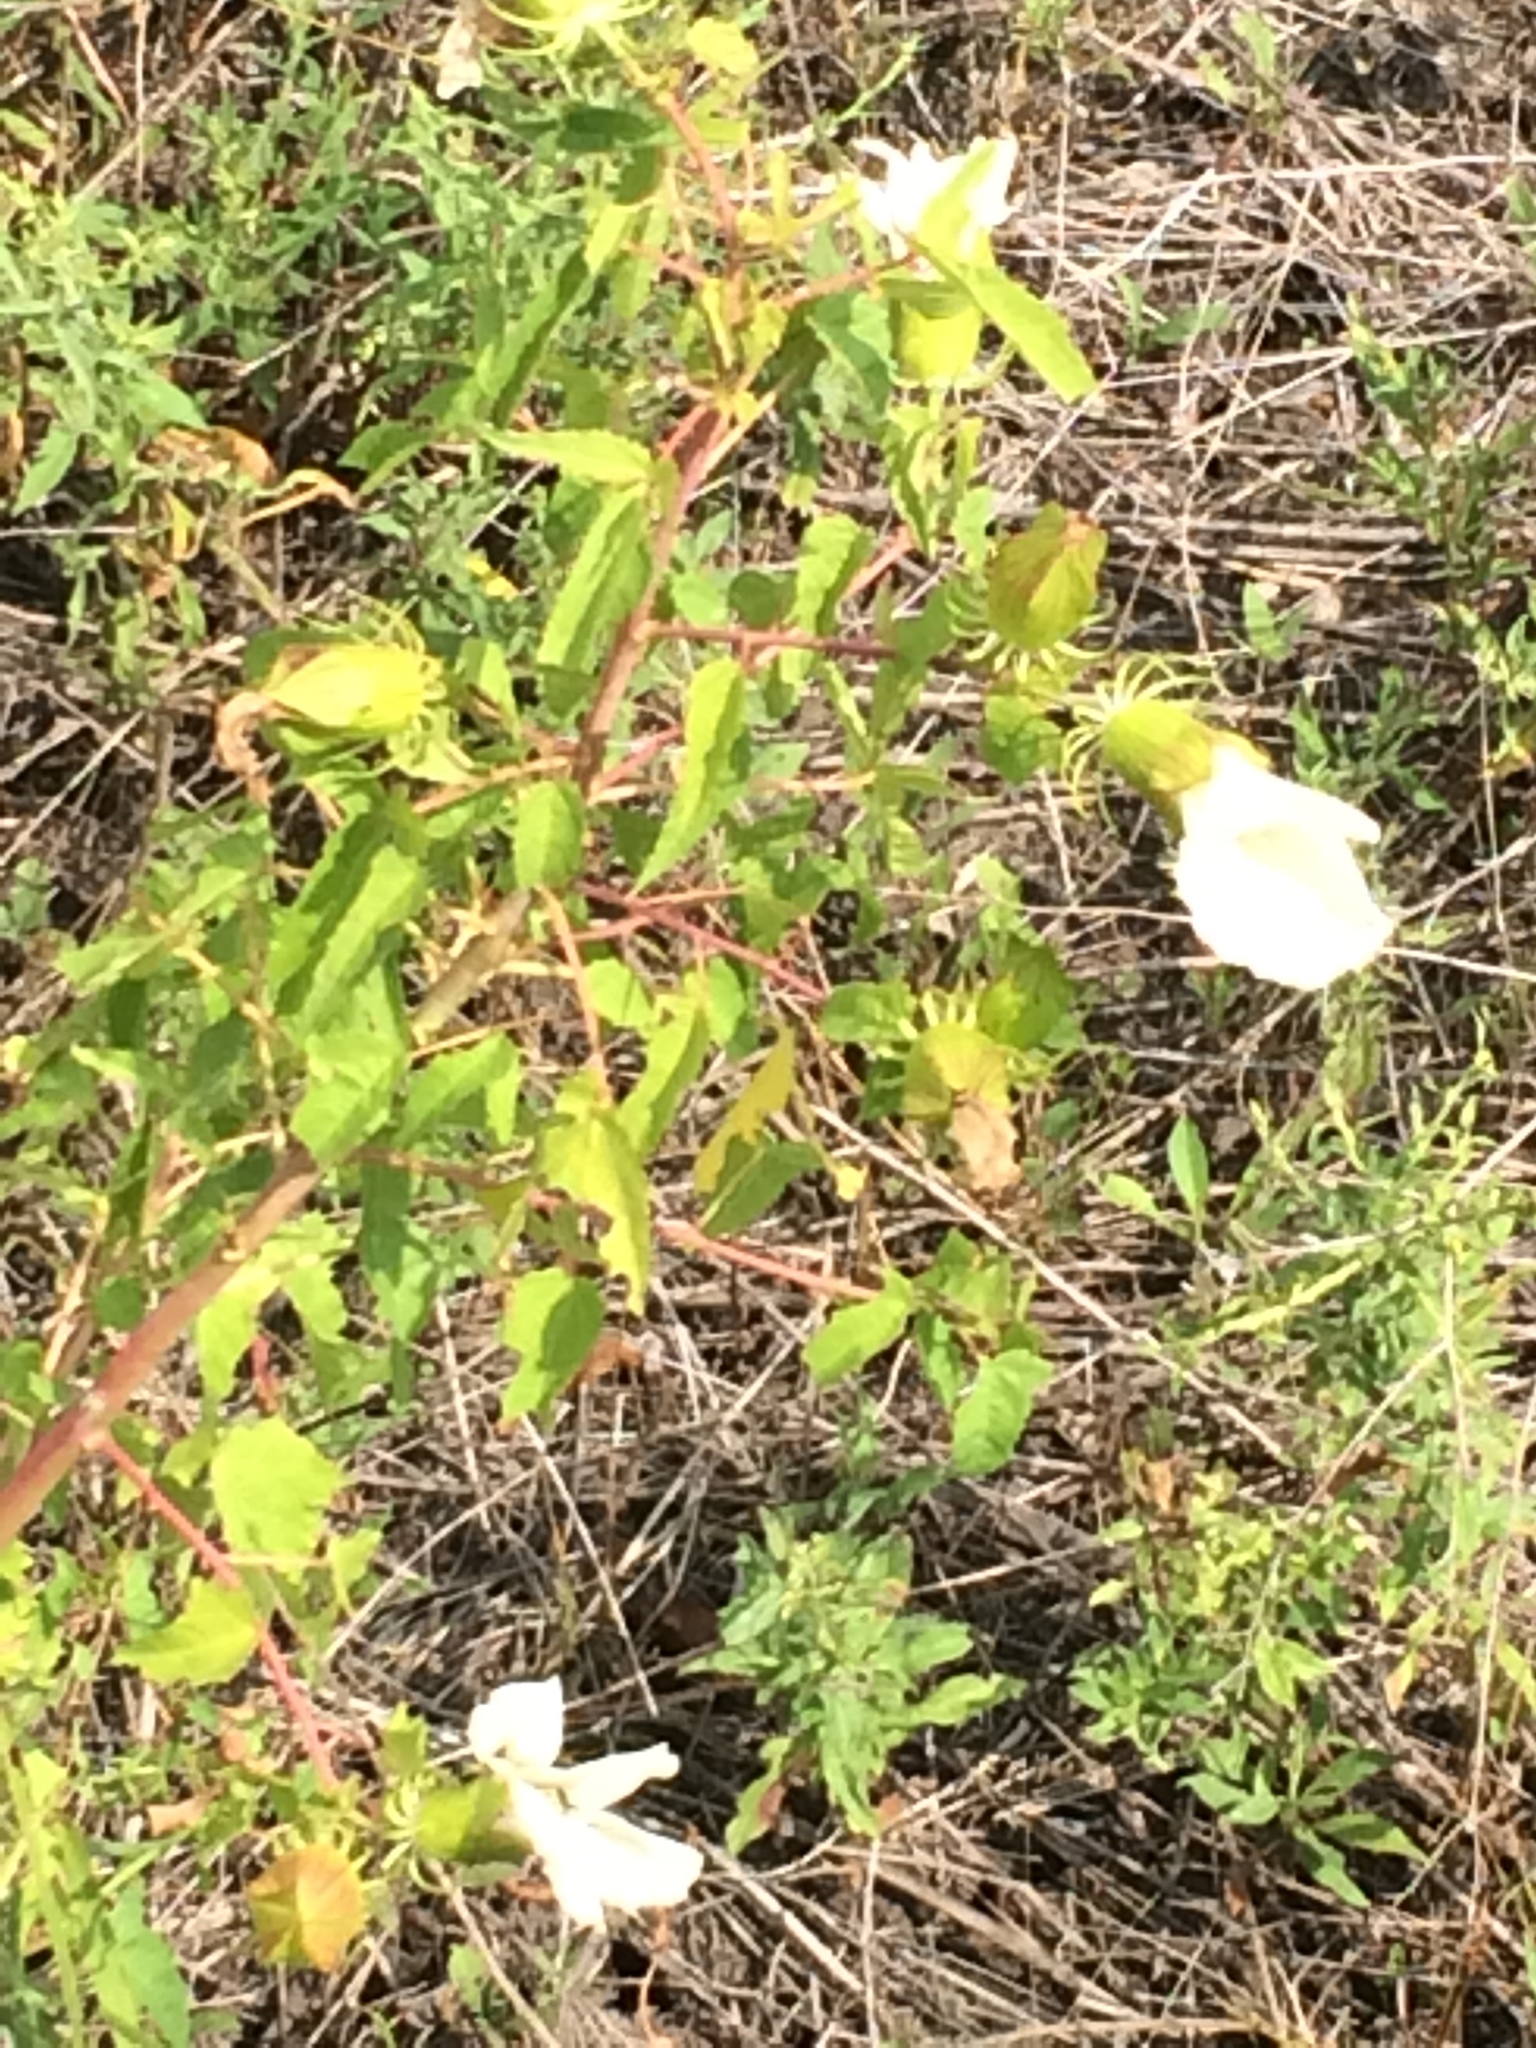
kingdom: Plantae
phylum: Tracheophyta
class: Magnoliopsida
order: Malvales
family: Malvaceae
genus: Hibiscus
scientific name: Hibiscus laevis
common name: Scarlet rose-mallow
